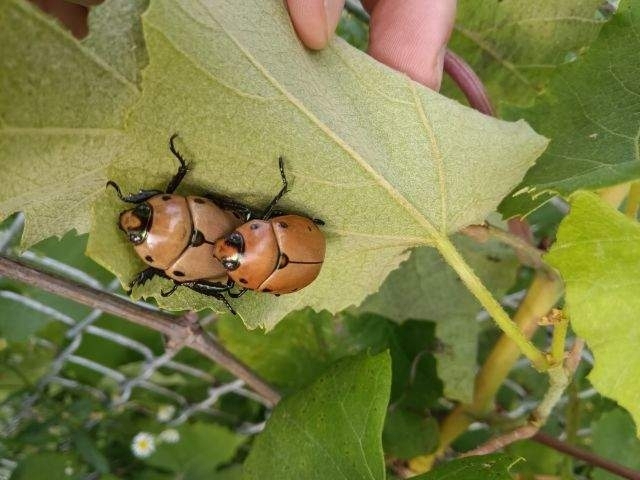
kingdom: Animalia
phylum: Arthropoda
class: Insecta
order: Coleoptera
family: Scarabaeidae
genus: Pelidnota
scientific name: Pelidnota punctata
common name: Grapevine beetle
